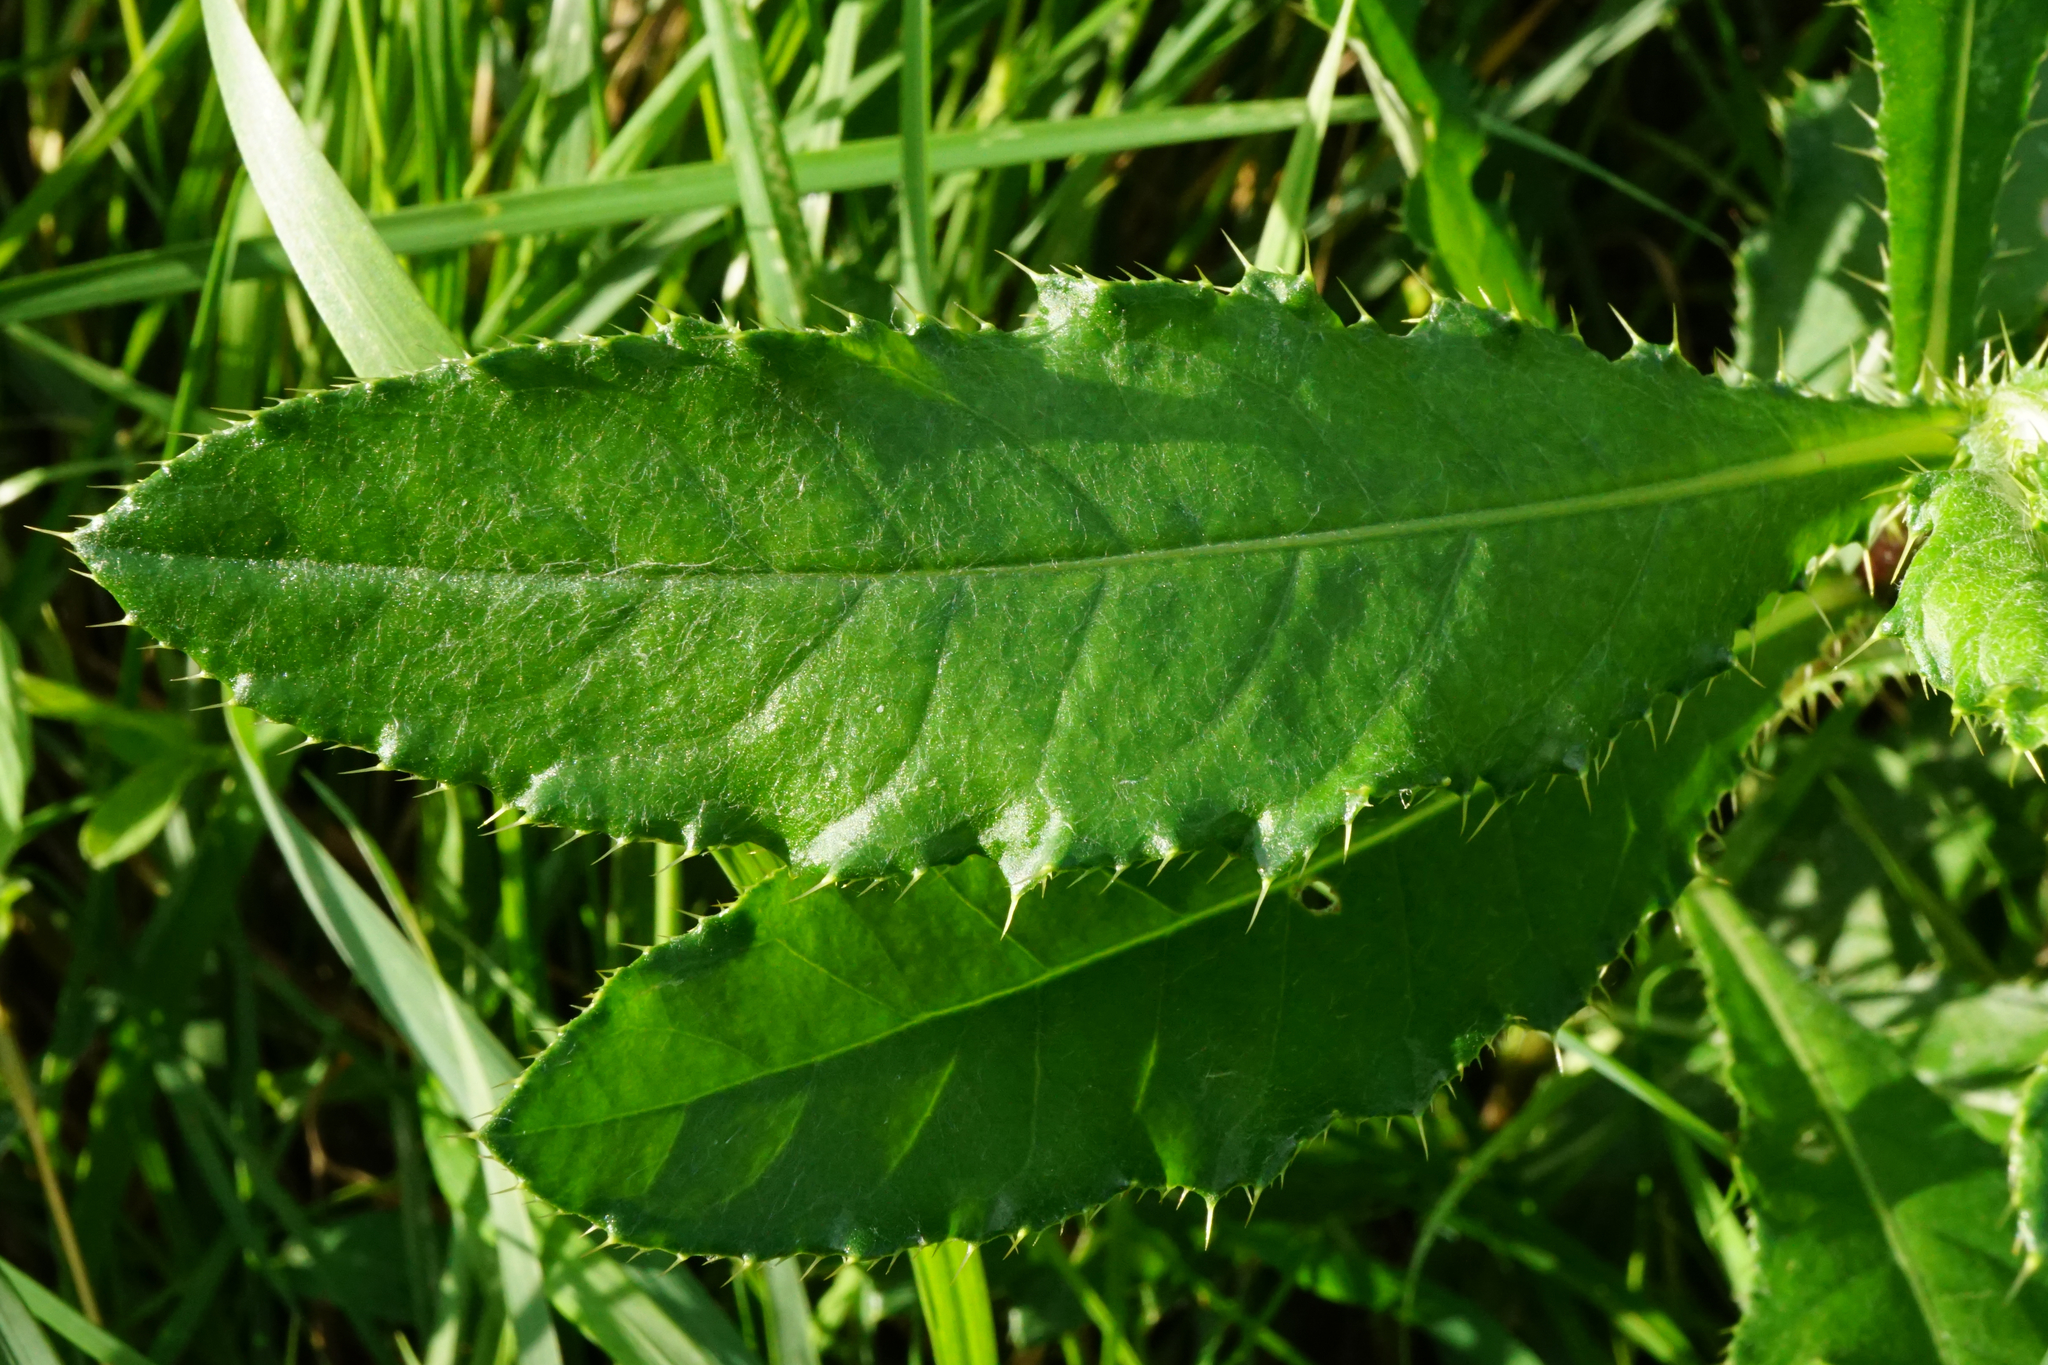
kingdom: Plantae
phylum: Tracheophyta
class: Magnoliopsida
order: Asterales
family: Asteraceae
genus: Cirsium
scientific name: Cirsium arvense
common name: Creeping thistle
